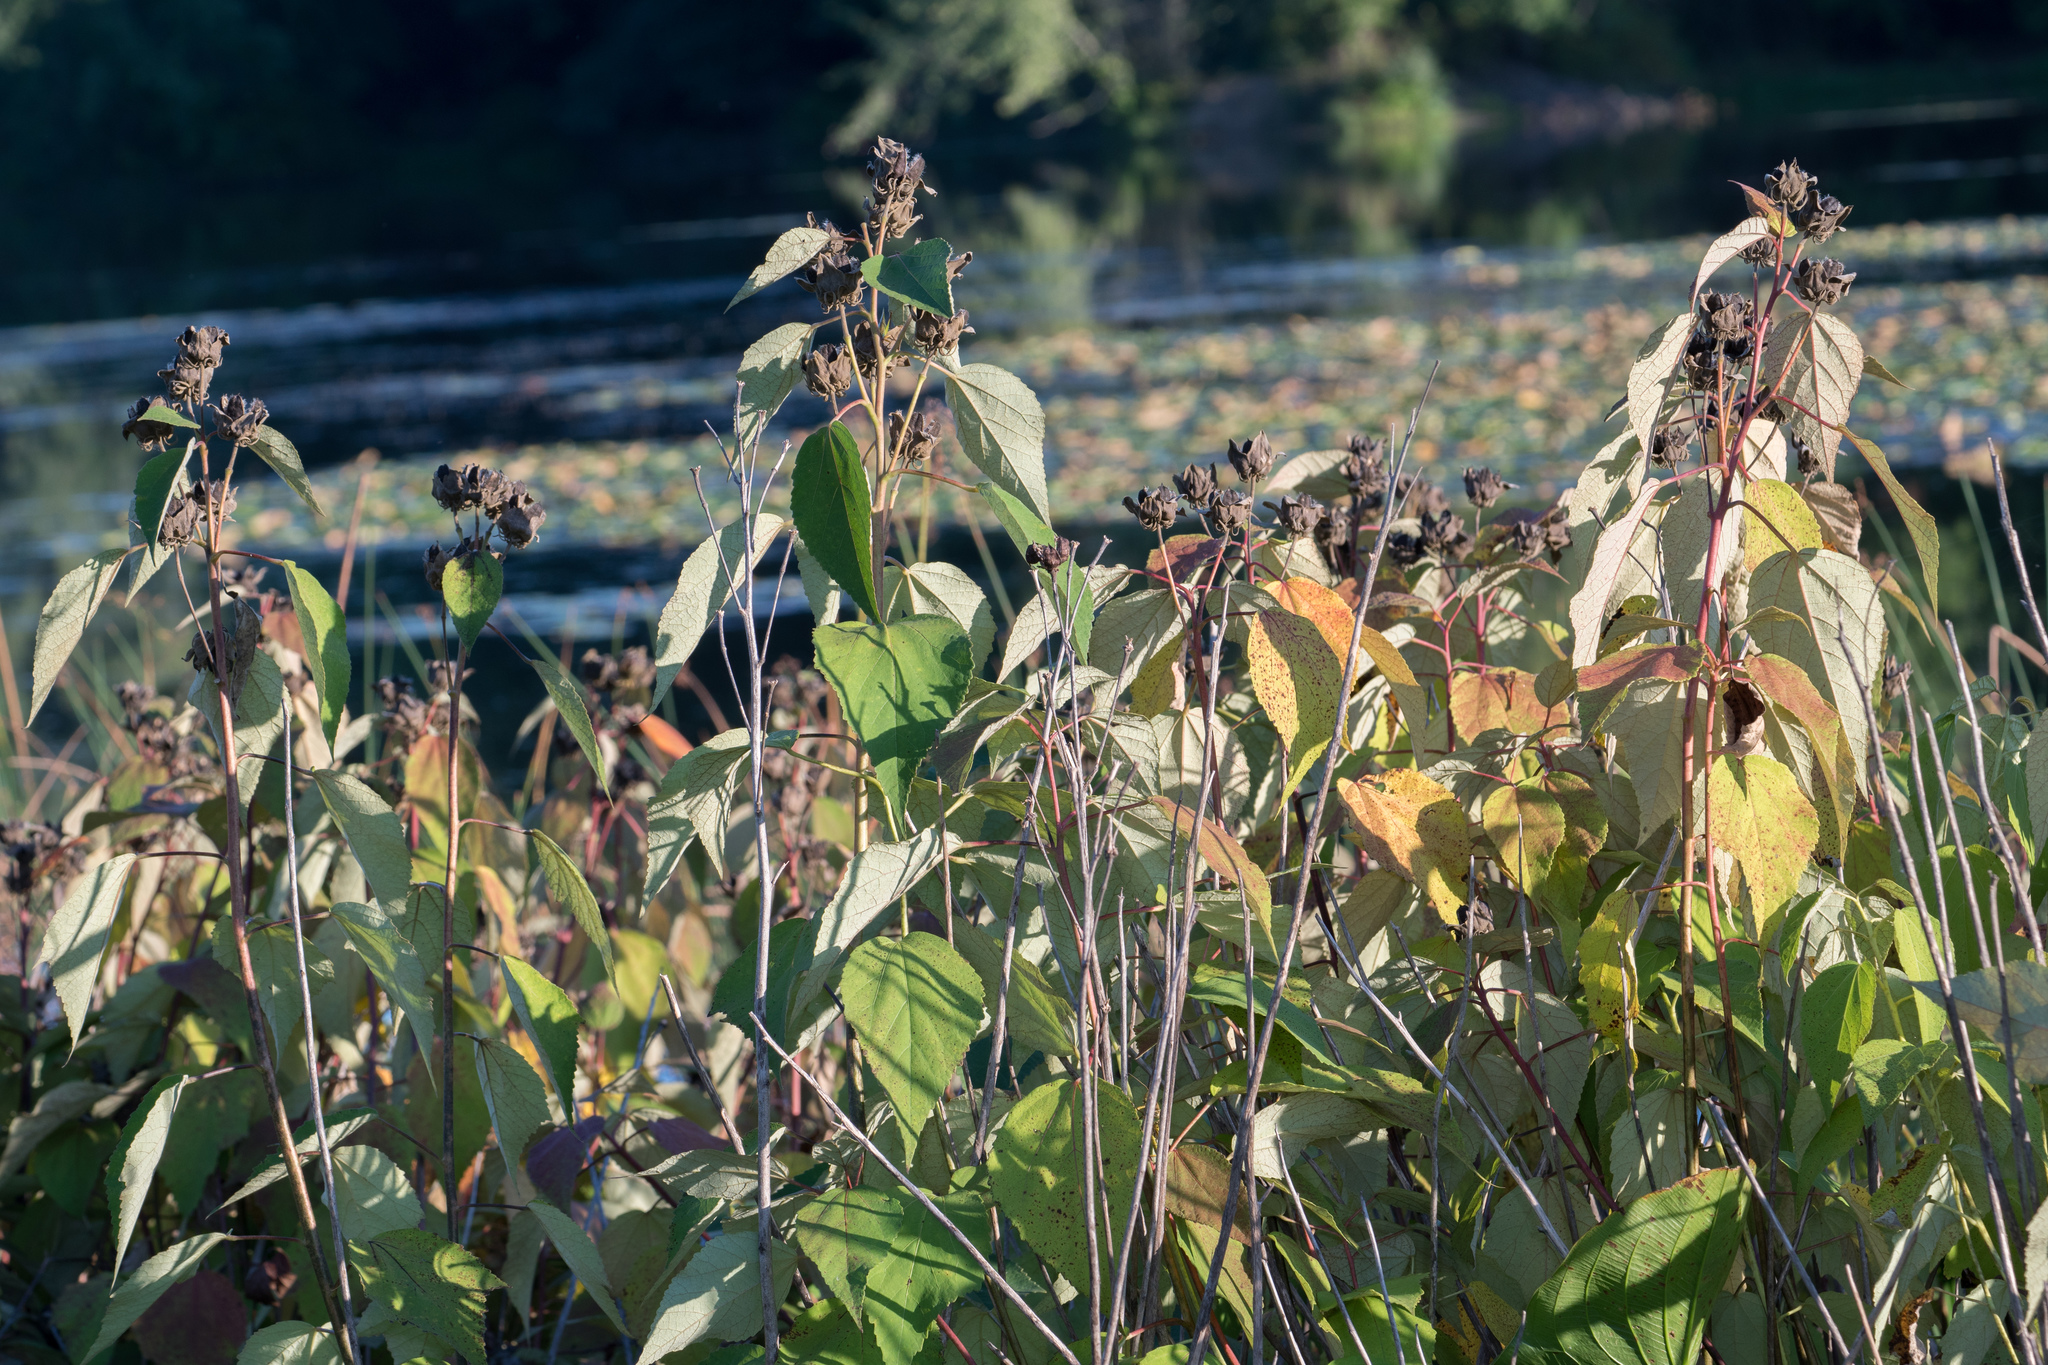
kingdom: Plantae
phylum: Tracheophyta
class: Magnoliopsida
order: Malvales
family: Malvaceae
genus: Hibiscus
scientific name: Hibiscus moscheutos
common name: Common rose-mallow
